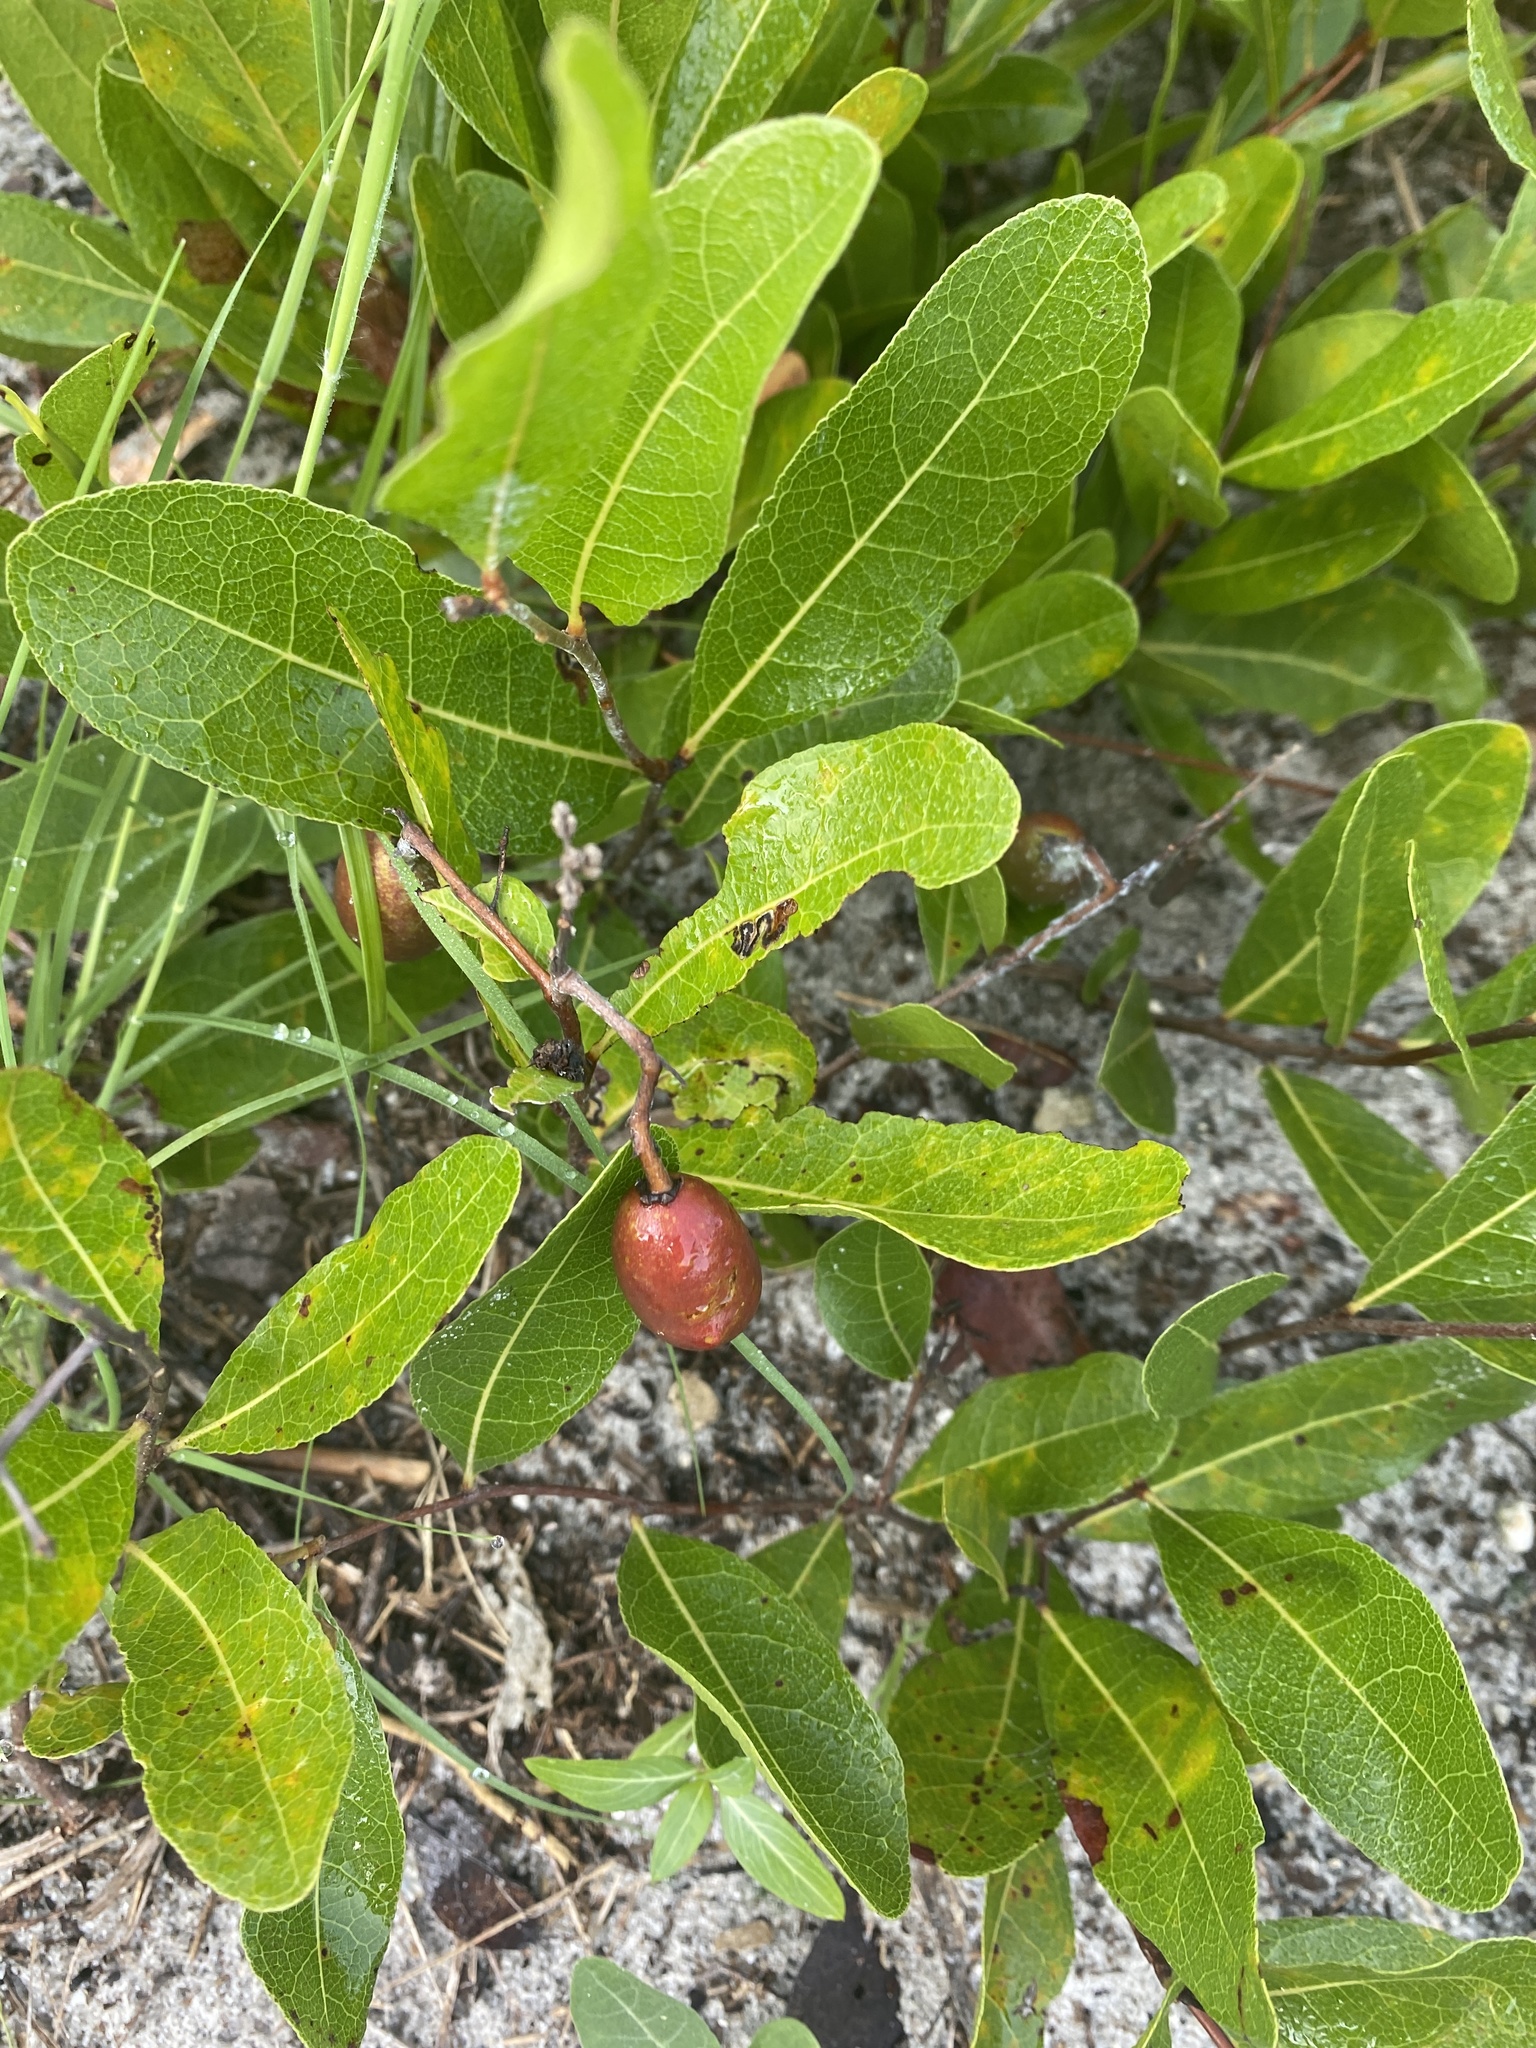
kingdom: Plantae
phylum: Tracheophyta
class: Magnoliopsida
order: Malpighiales
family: Chrysobalanaceae
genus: Geobalanus
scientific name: Geobalanus oblongifolius
